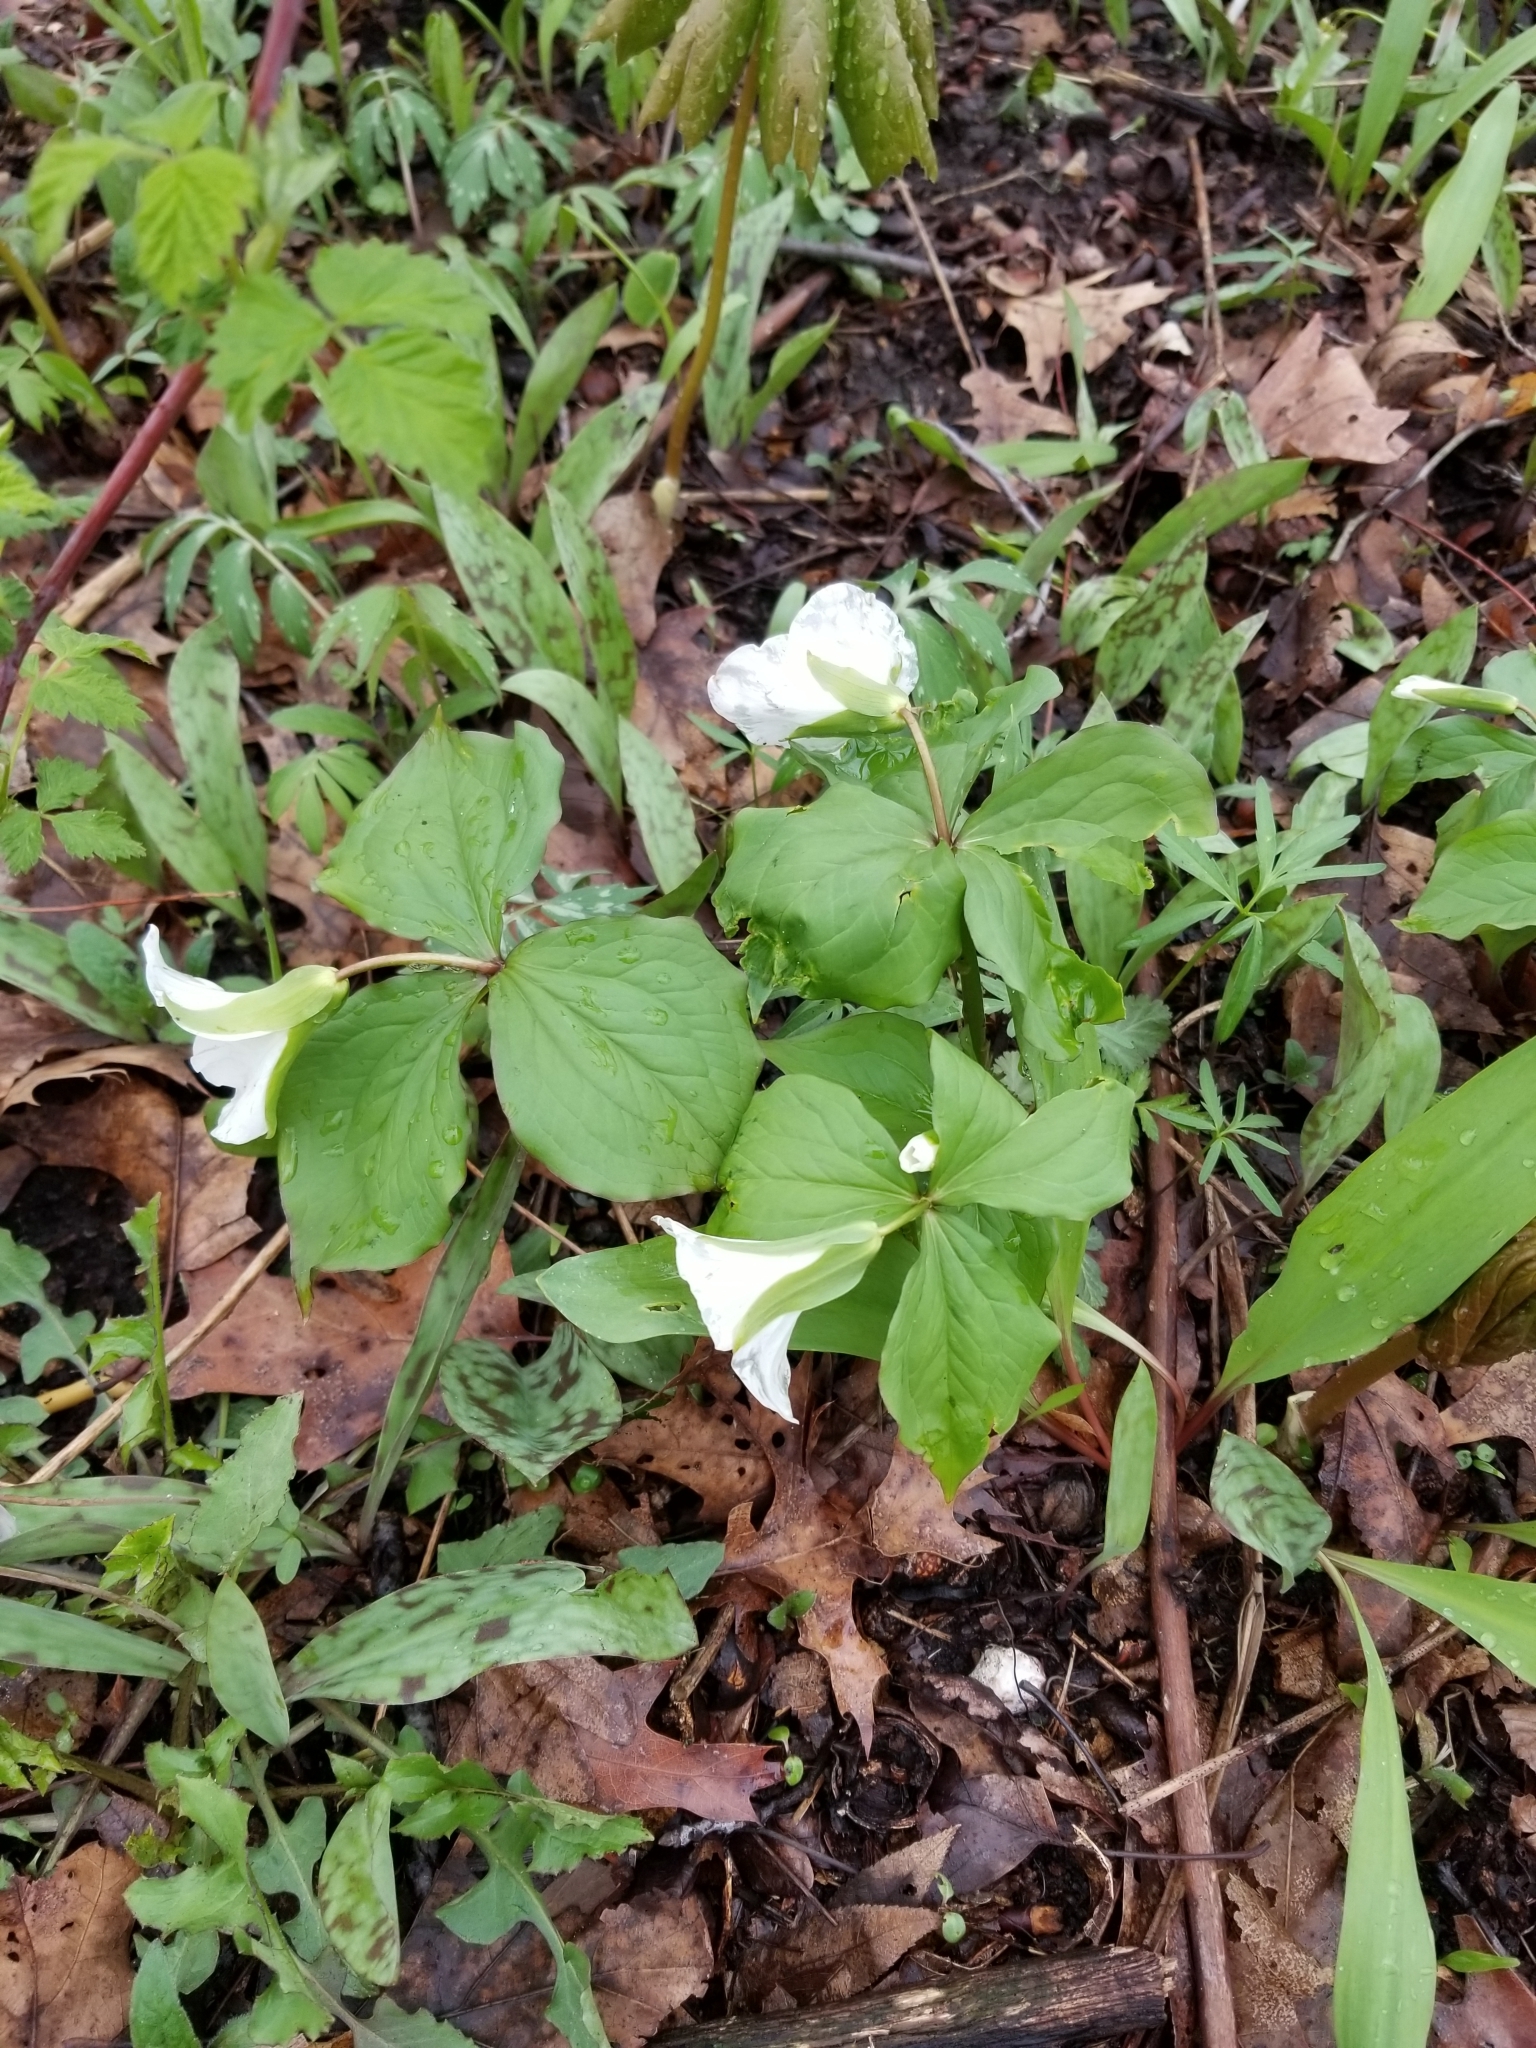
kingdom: Plantae
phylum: Tracheophyta
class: Liliopsida
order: Liliales
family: Melanthiaceae
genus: Trillium
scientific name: Trillium grandiflorum
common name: Great white trillium
